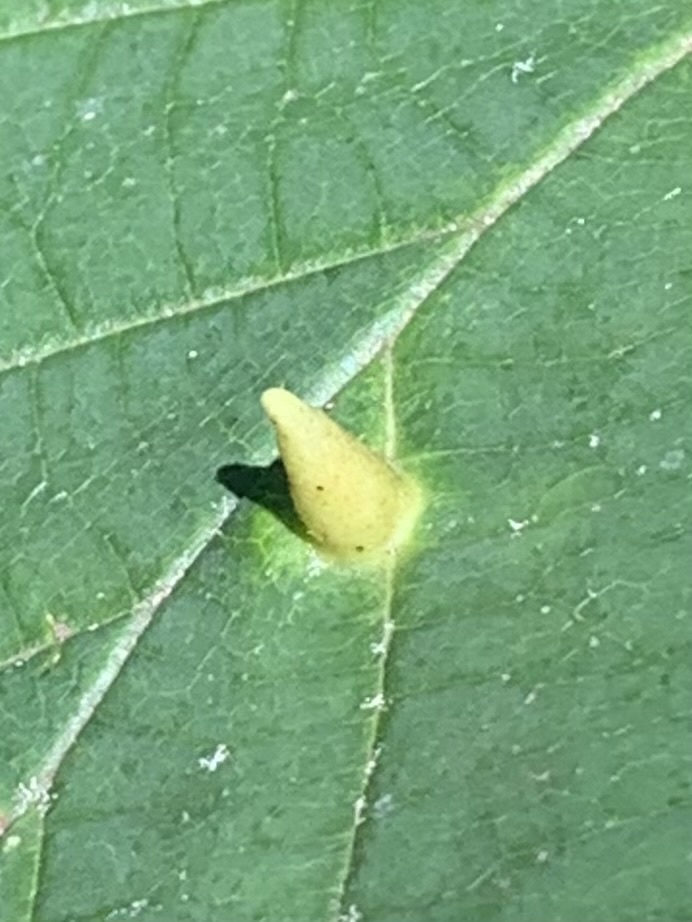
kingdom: Animalia
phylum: Arthropoda
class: Insecta
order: Hemiptera
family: Aphididae
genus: Hormaphis
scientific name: Hormaphis hamamelidis
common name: Witch-hazel cone gall aphid
